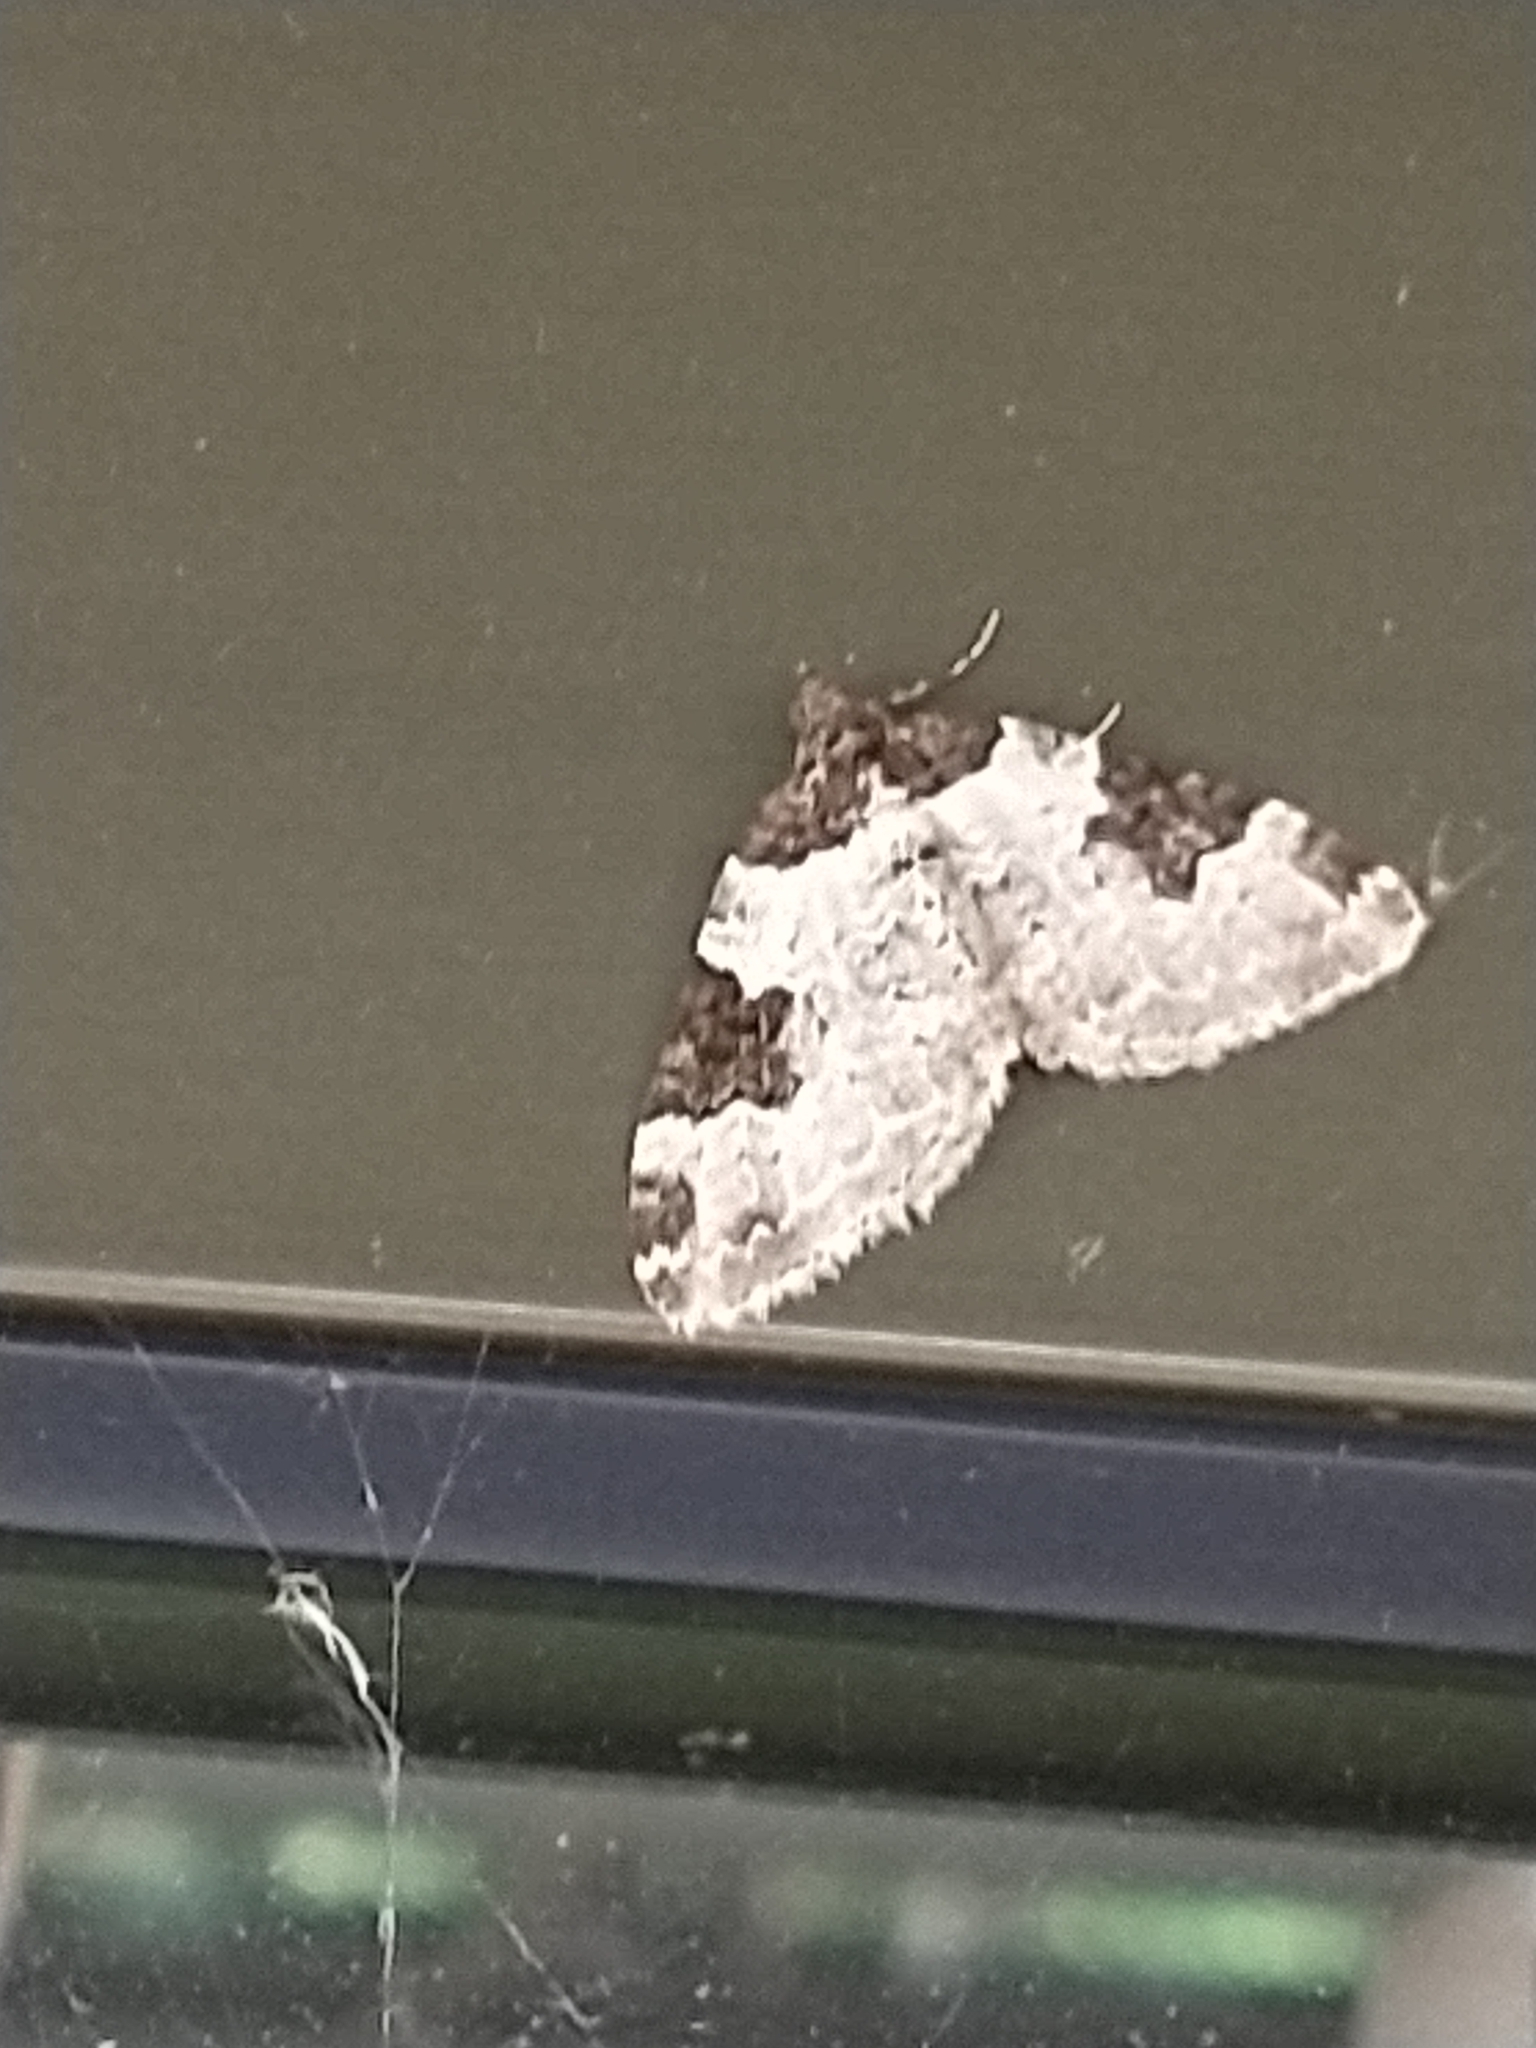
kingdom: Animalia
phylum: Arthropoda
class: Insecta
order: Lepidoptera
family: Geometridae
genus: Xanthorhoe
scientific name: Xanthorhoe fluctuata
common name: Garden carpet
